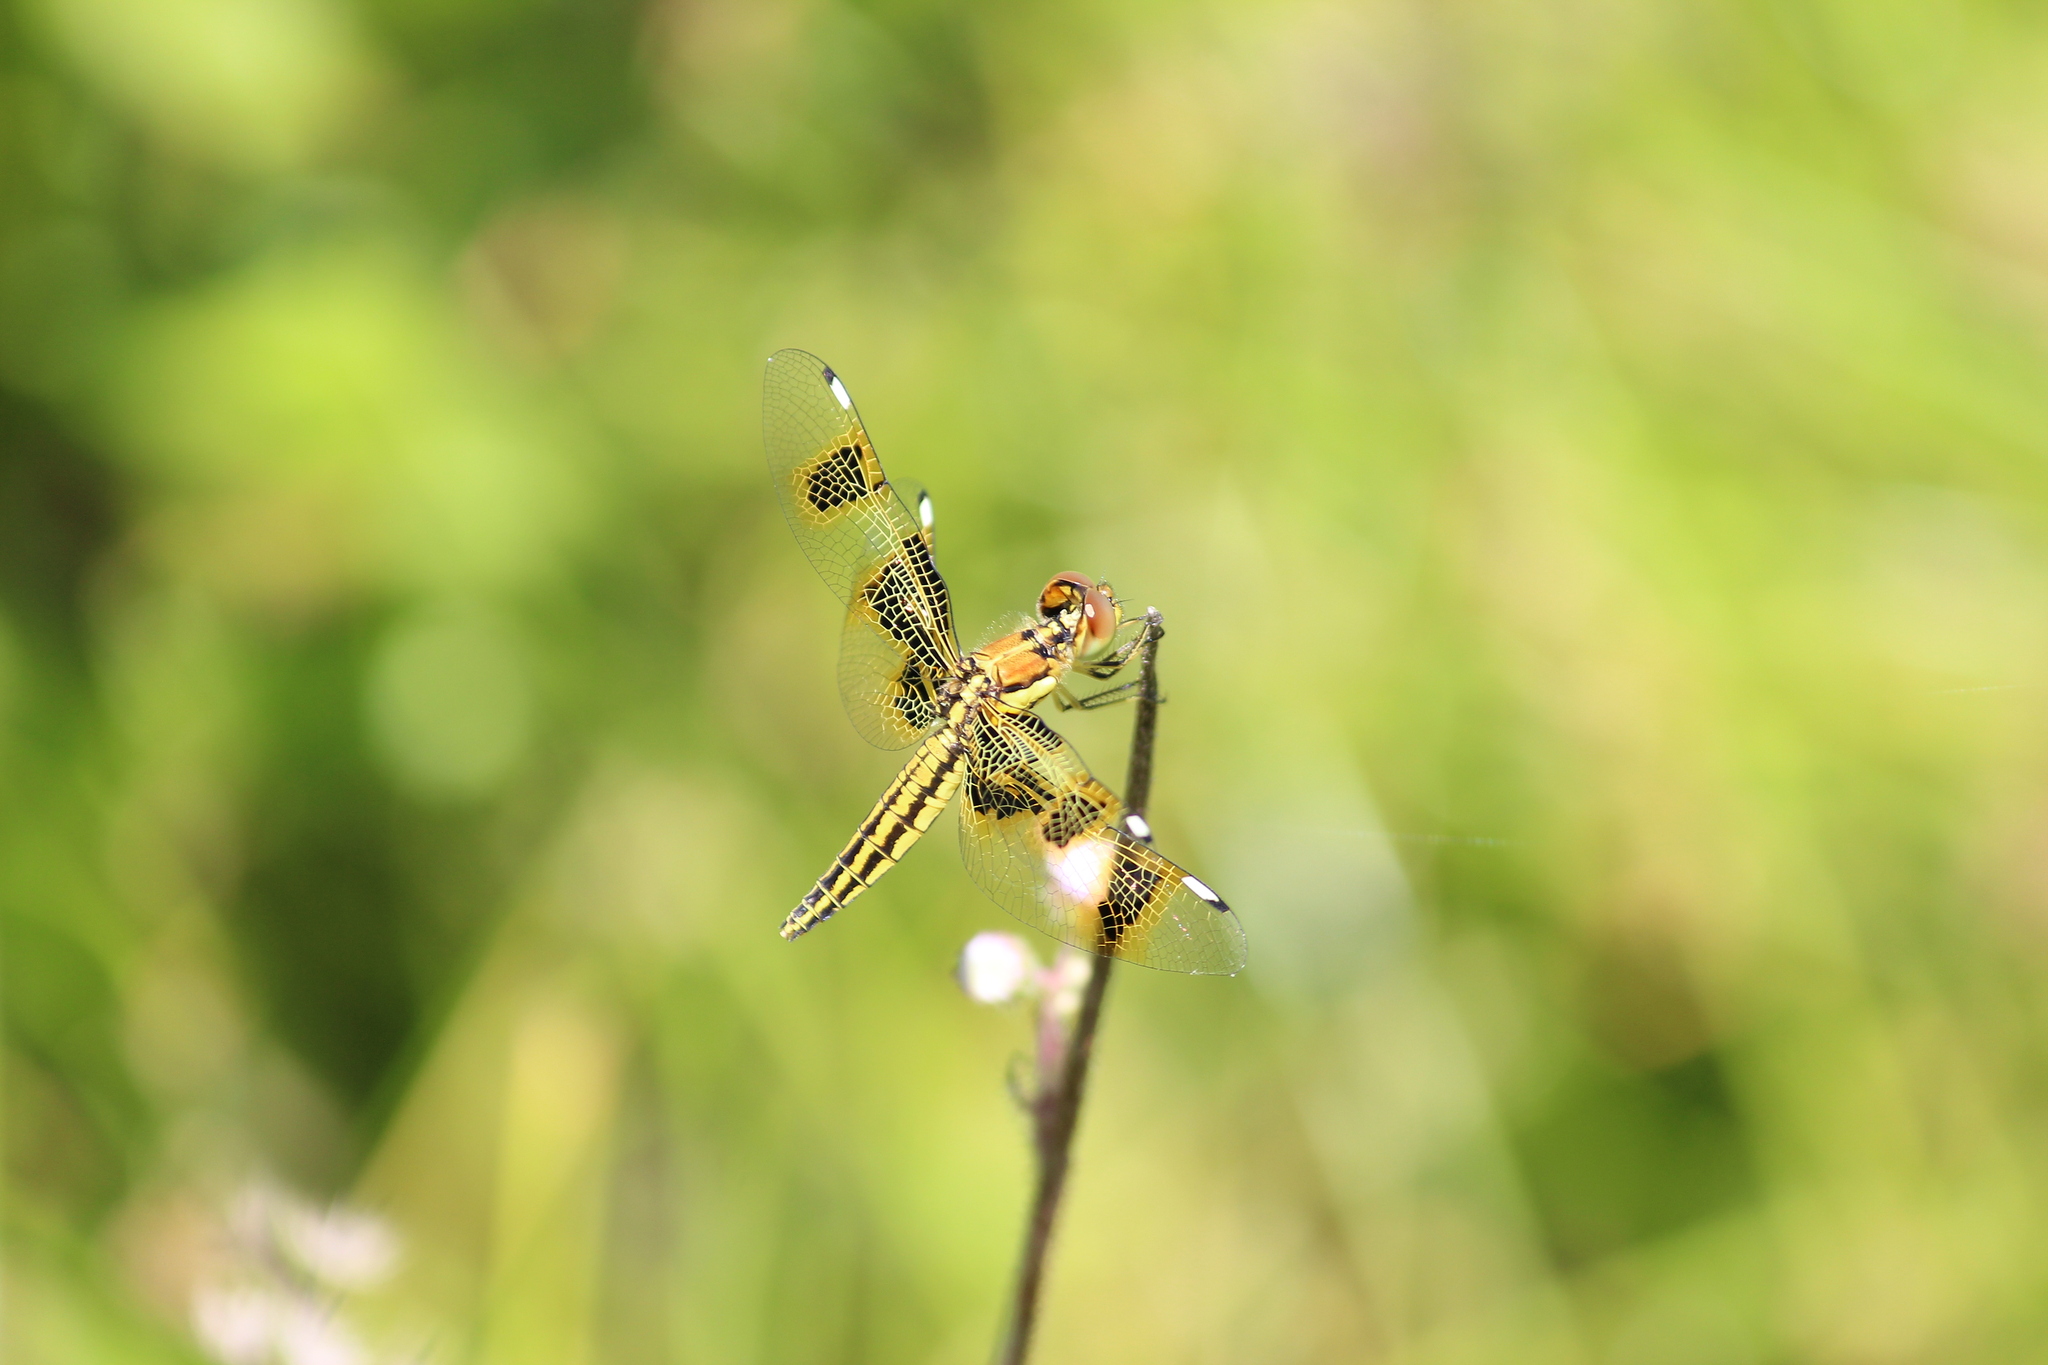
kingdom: Animalia
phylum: Arthropoda
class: Insecta
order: Odonata
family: Libellulidae
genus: Palpopleura
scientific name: Palpopleura jucunda
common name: Yellow-veined widow
